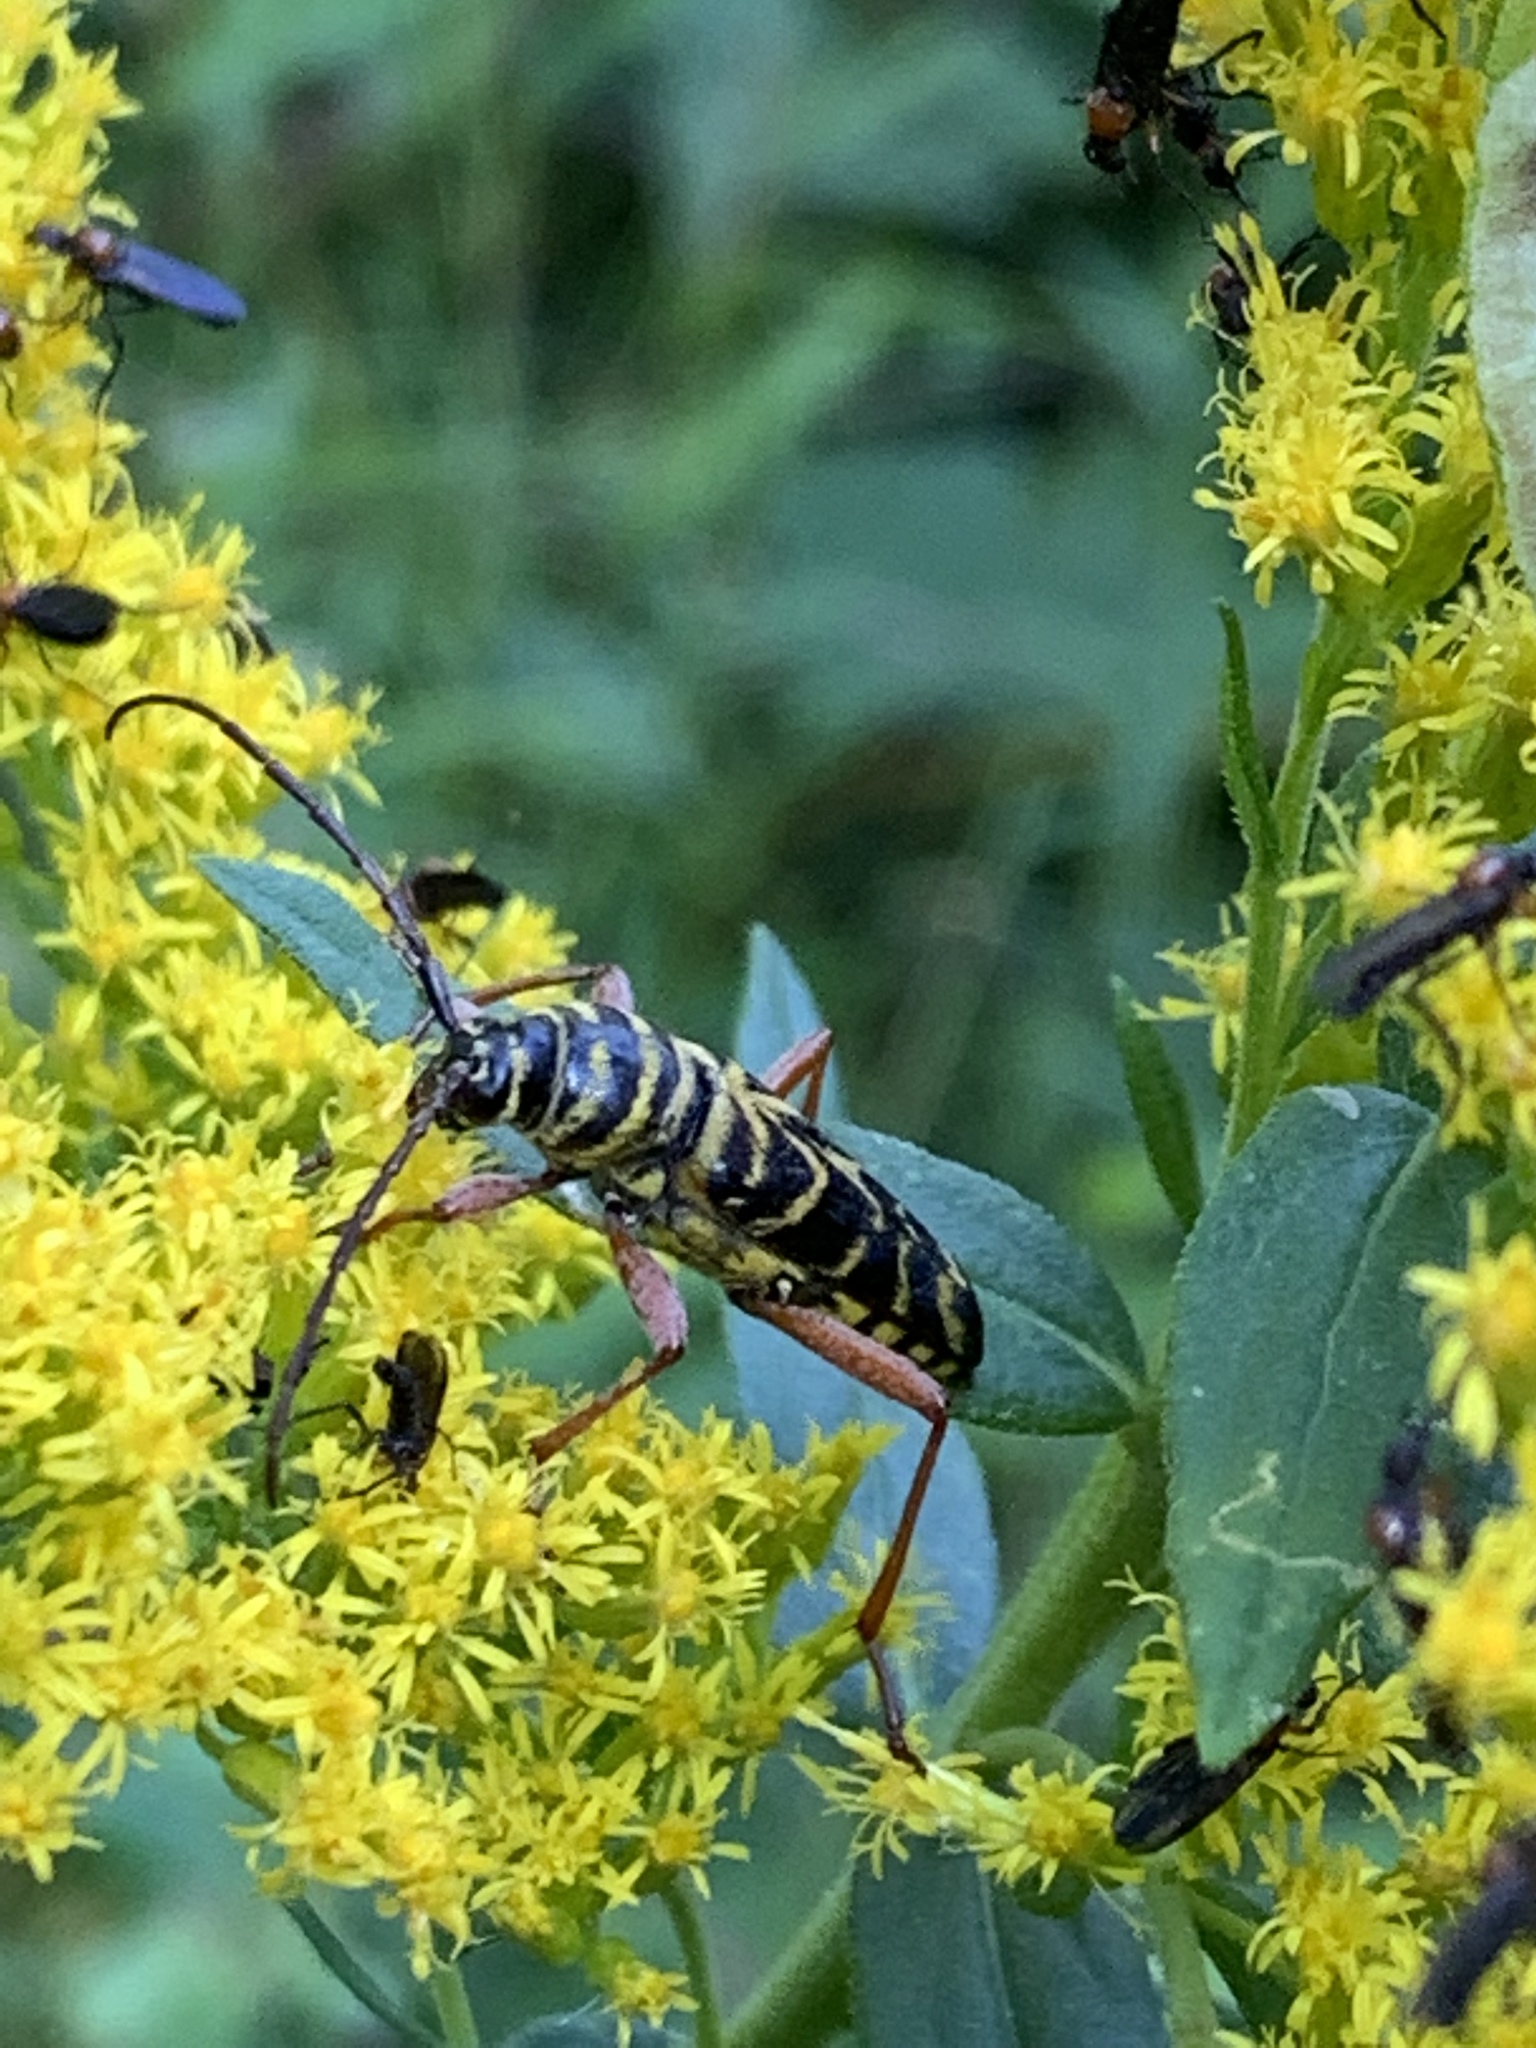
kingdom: Animalia
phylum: Arthropoda
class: Insecta
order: Coleoptera
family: Cerambycidae
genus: Megacyllene
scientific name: Megacyllene robiniae
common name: Locust borer
